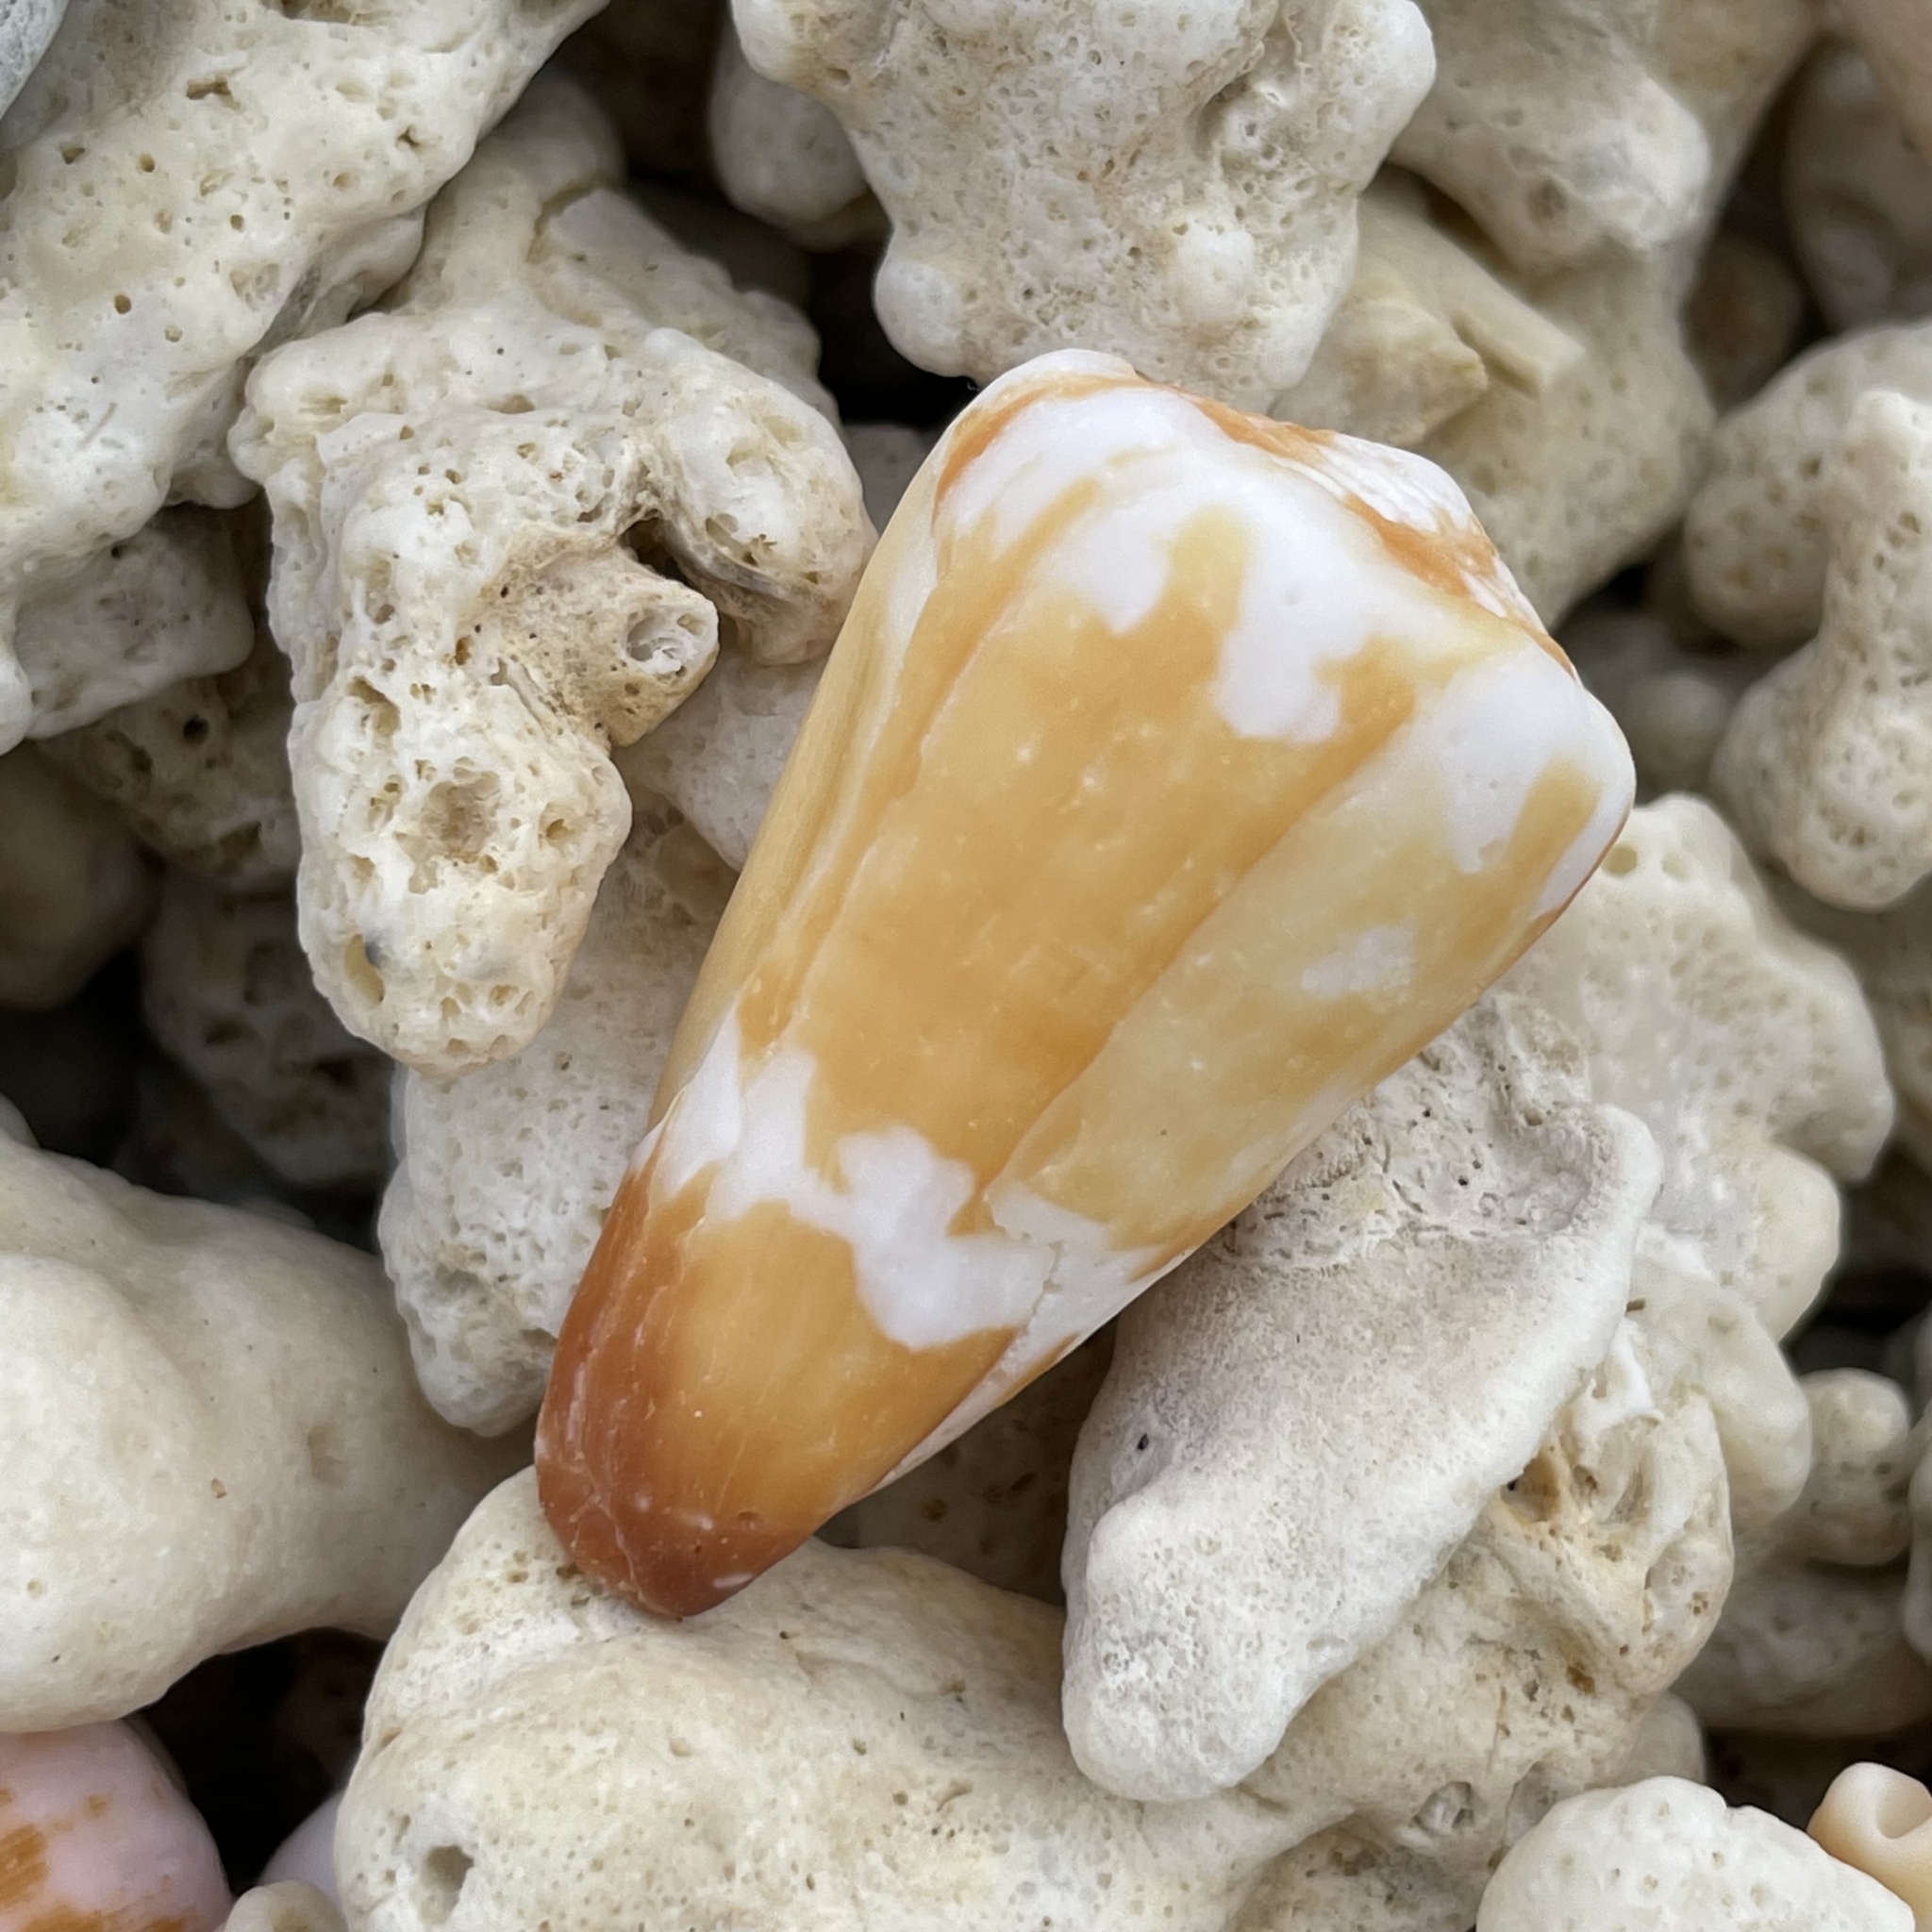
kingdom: Animalia
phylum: Mollusca
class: Gastropoda
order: Neogastropoda
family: Conidae
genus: Conus
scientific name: Conus litoglyphus
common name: Lithograph cone
